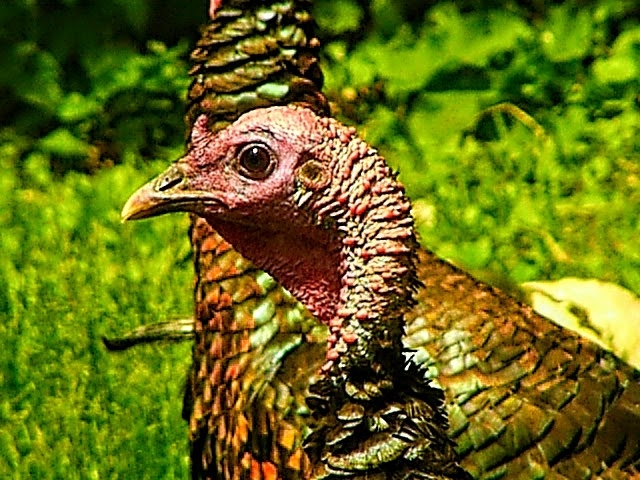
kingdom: Animalia
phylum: Chordata
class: Aves
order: Galliformes
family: Phasianidae
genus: Meleagris
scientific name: Meleagris gallopavo
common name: Wild turkey
